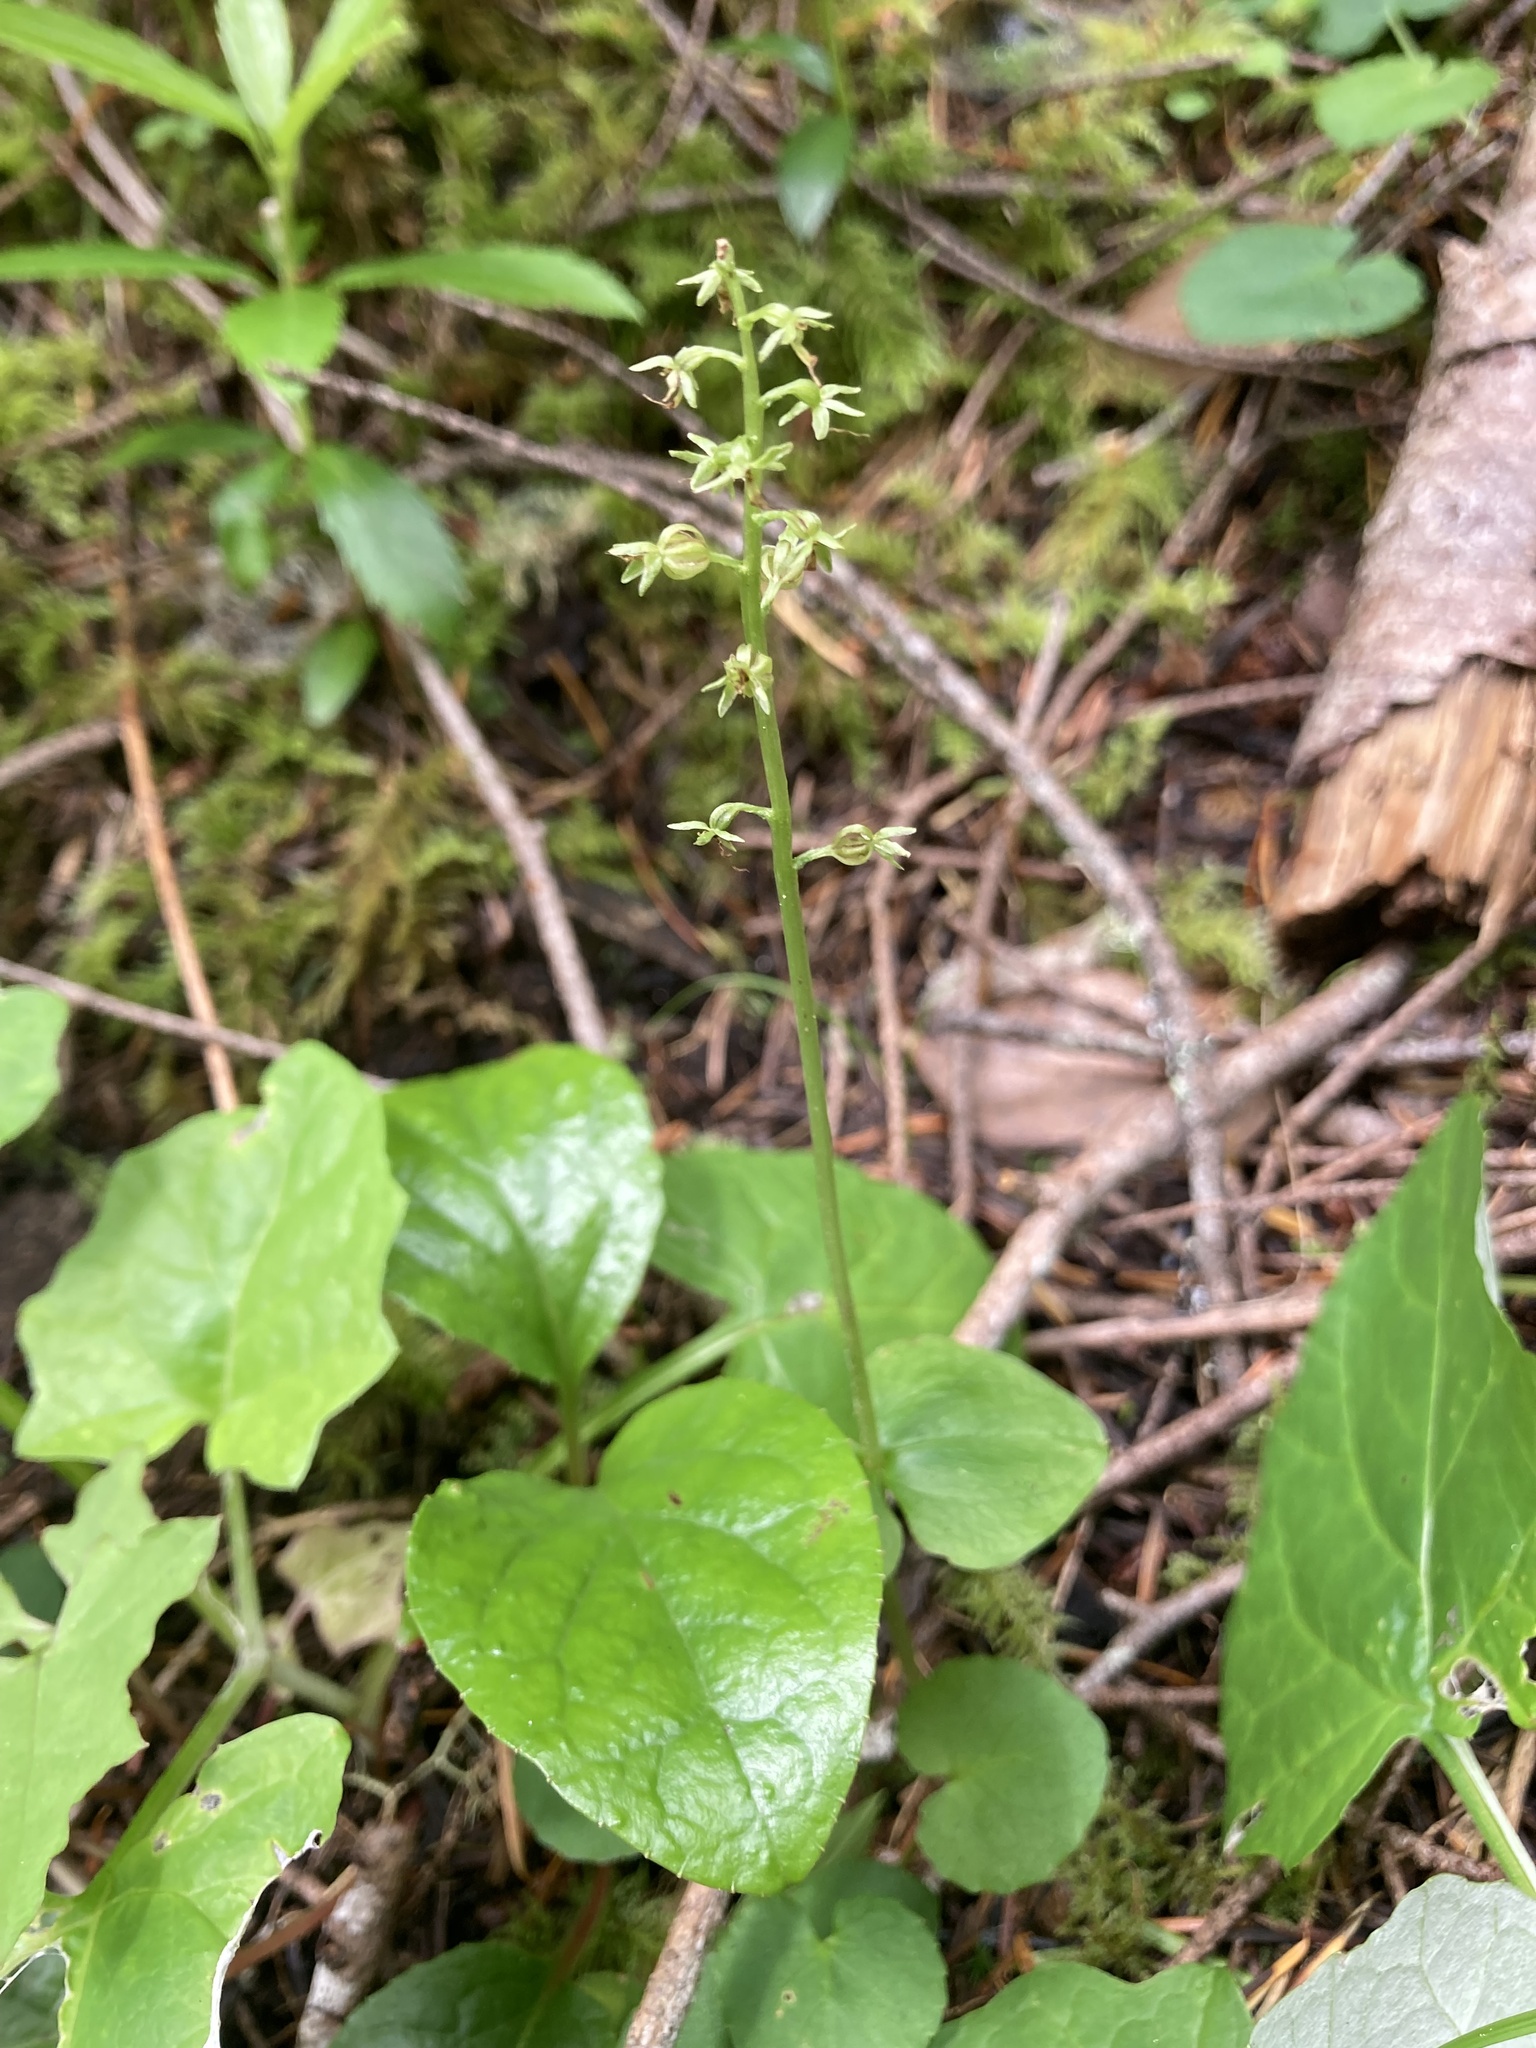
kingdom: Plantae
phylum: Tracheophyta
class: Liliopsida
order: Asparagales
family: Orchidaceae
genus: Neottia
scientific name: Neottia cordata
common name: Lesser twayblade
